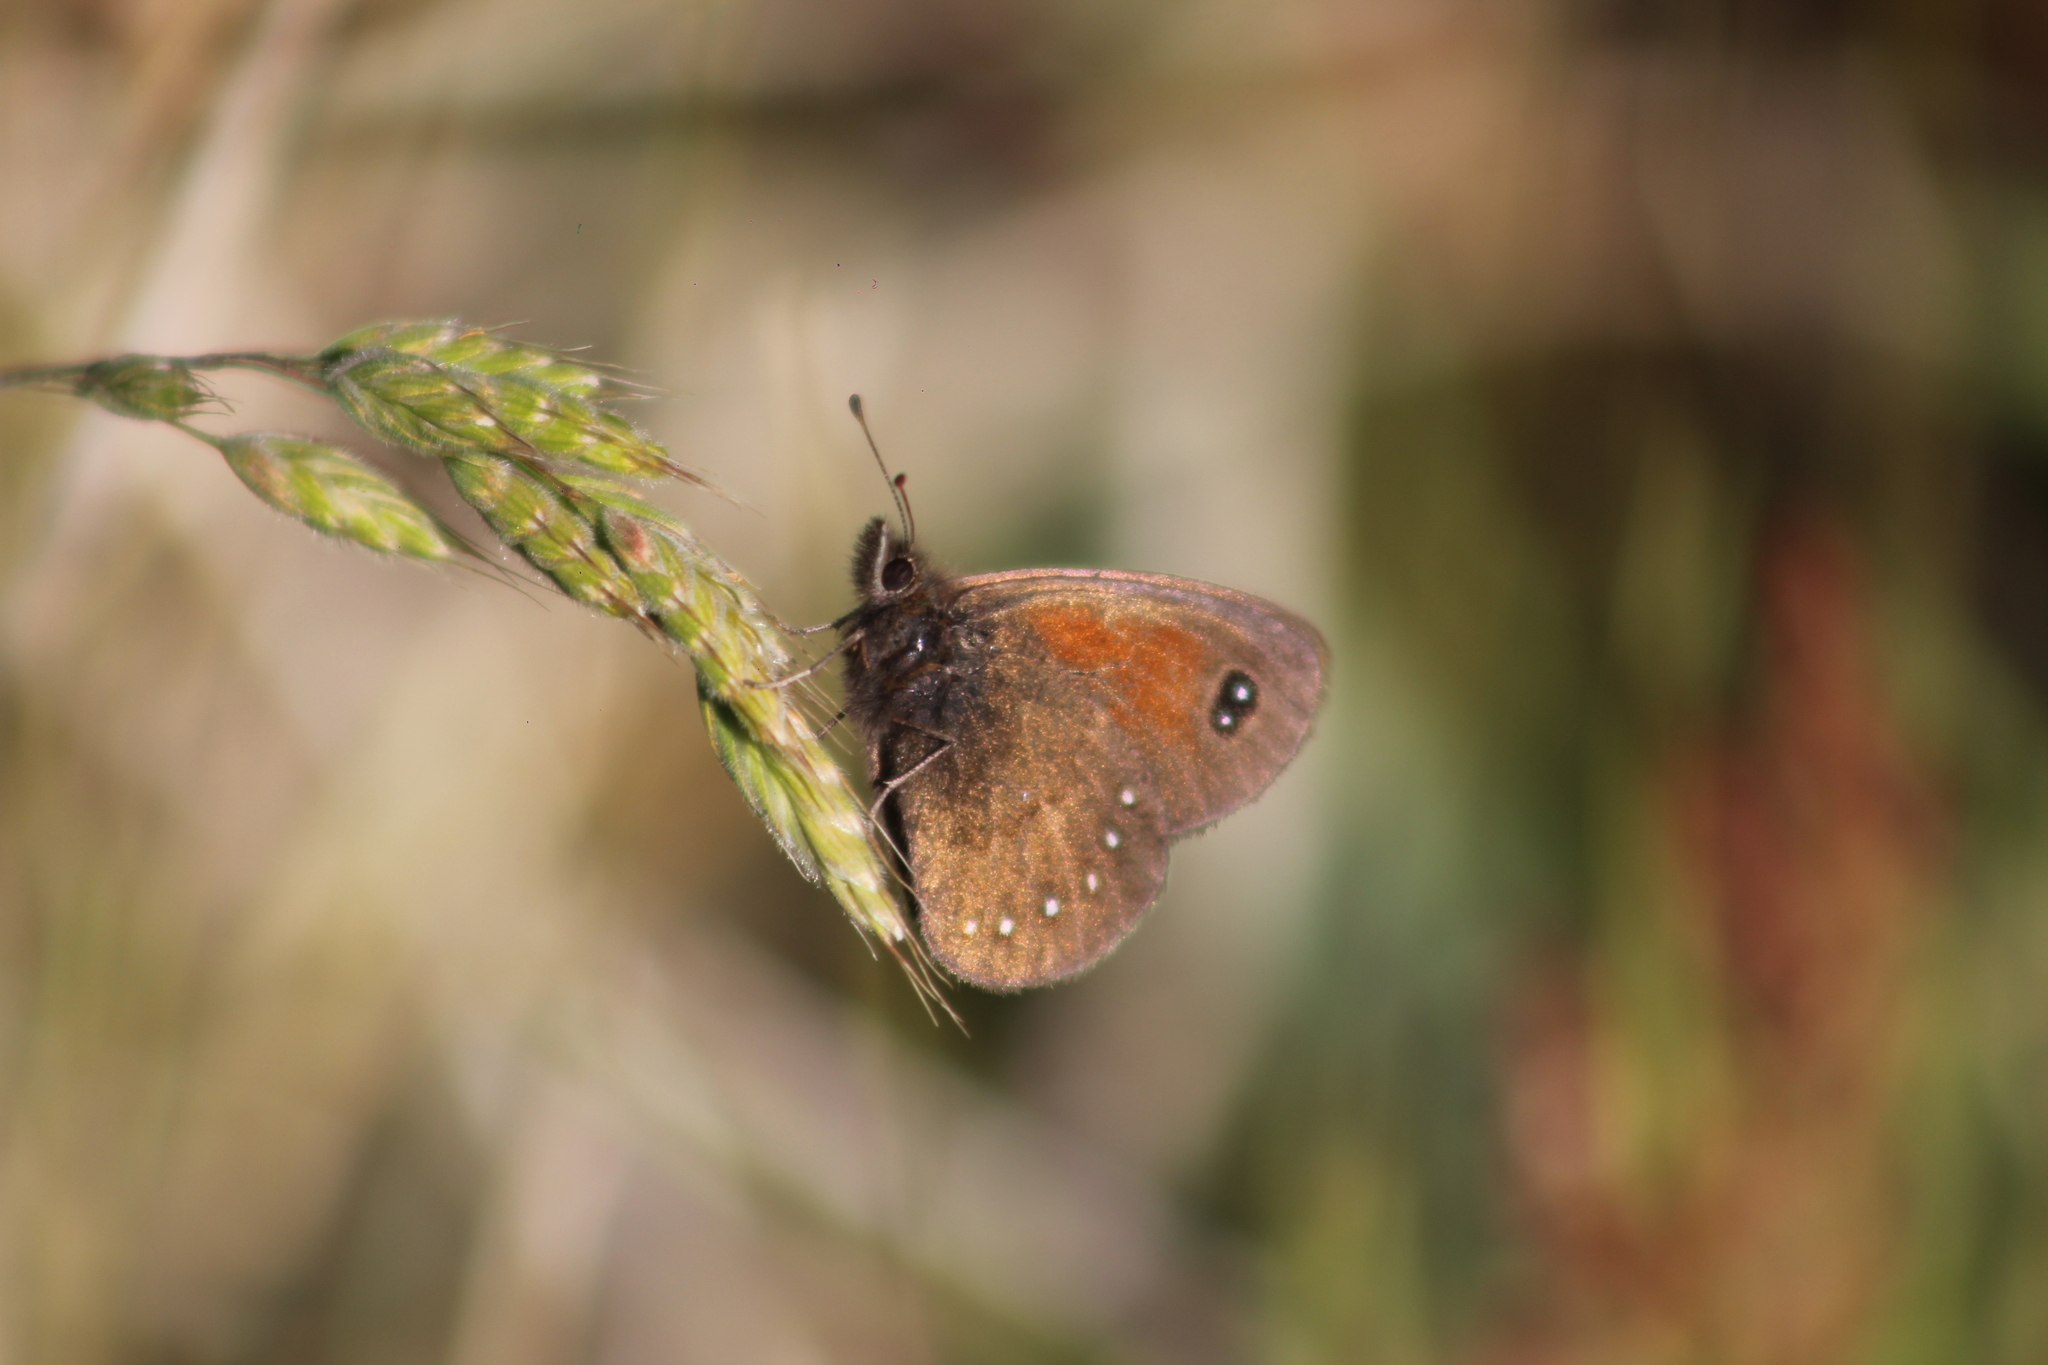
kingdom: Animalia
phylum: Arthropoda
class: Insecta
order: Lepidoptera
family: Nymphalidae
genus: Faunula
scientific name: Faunula stelligera
